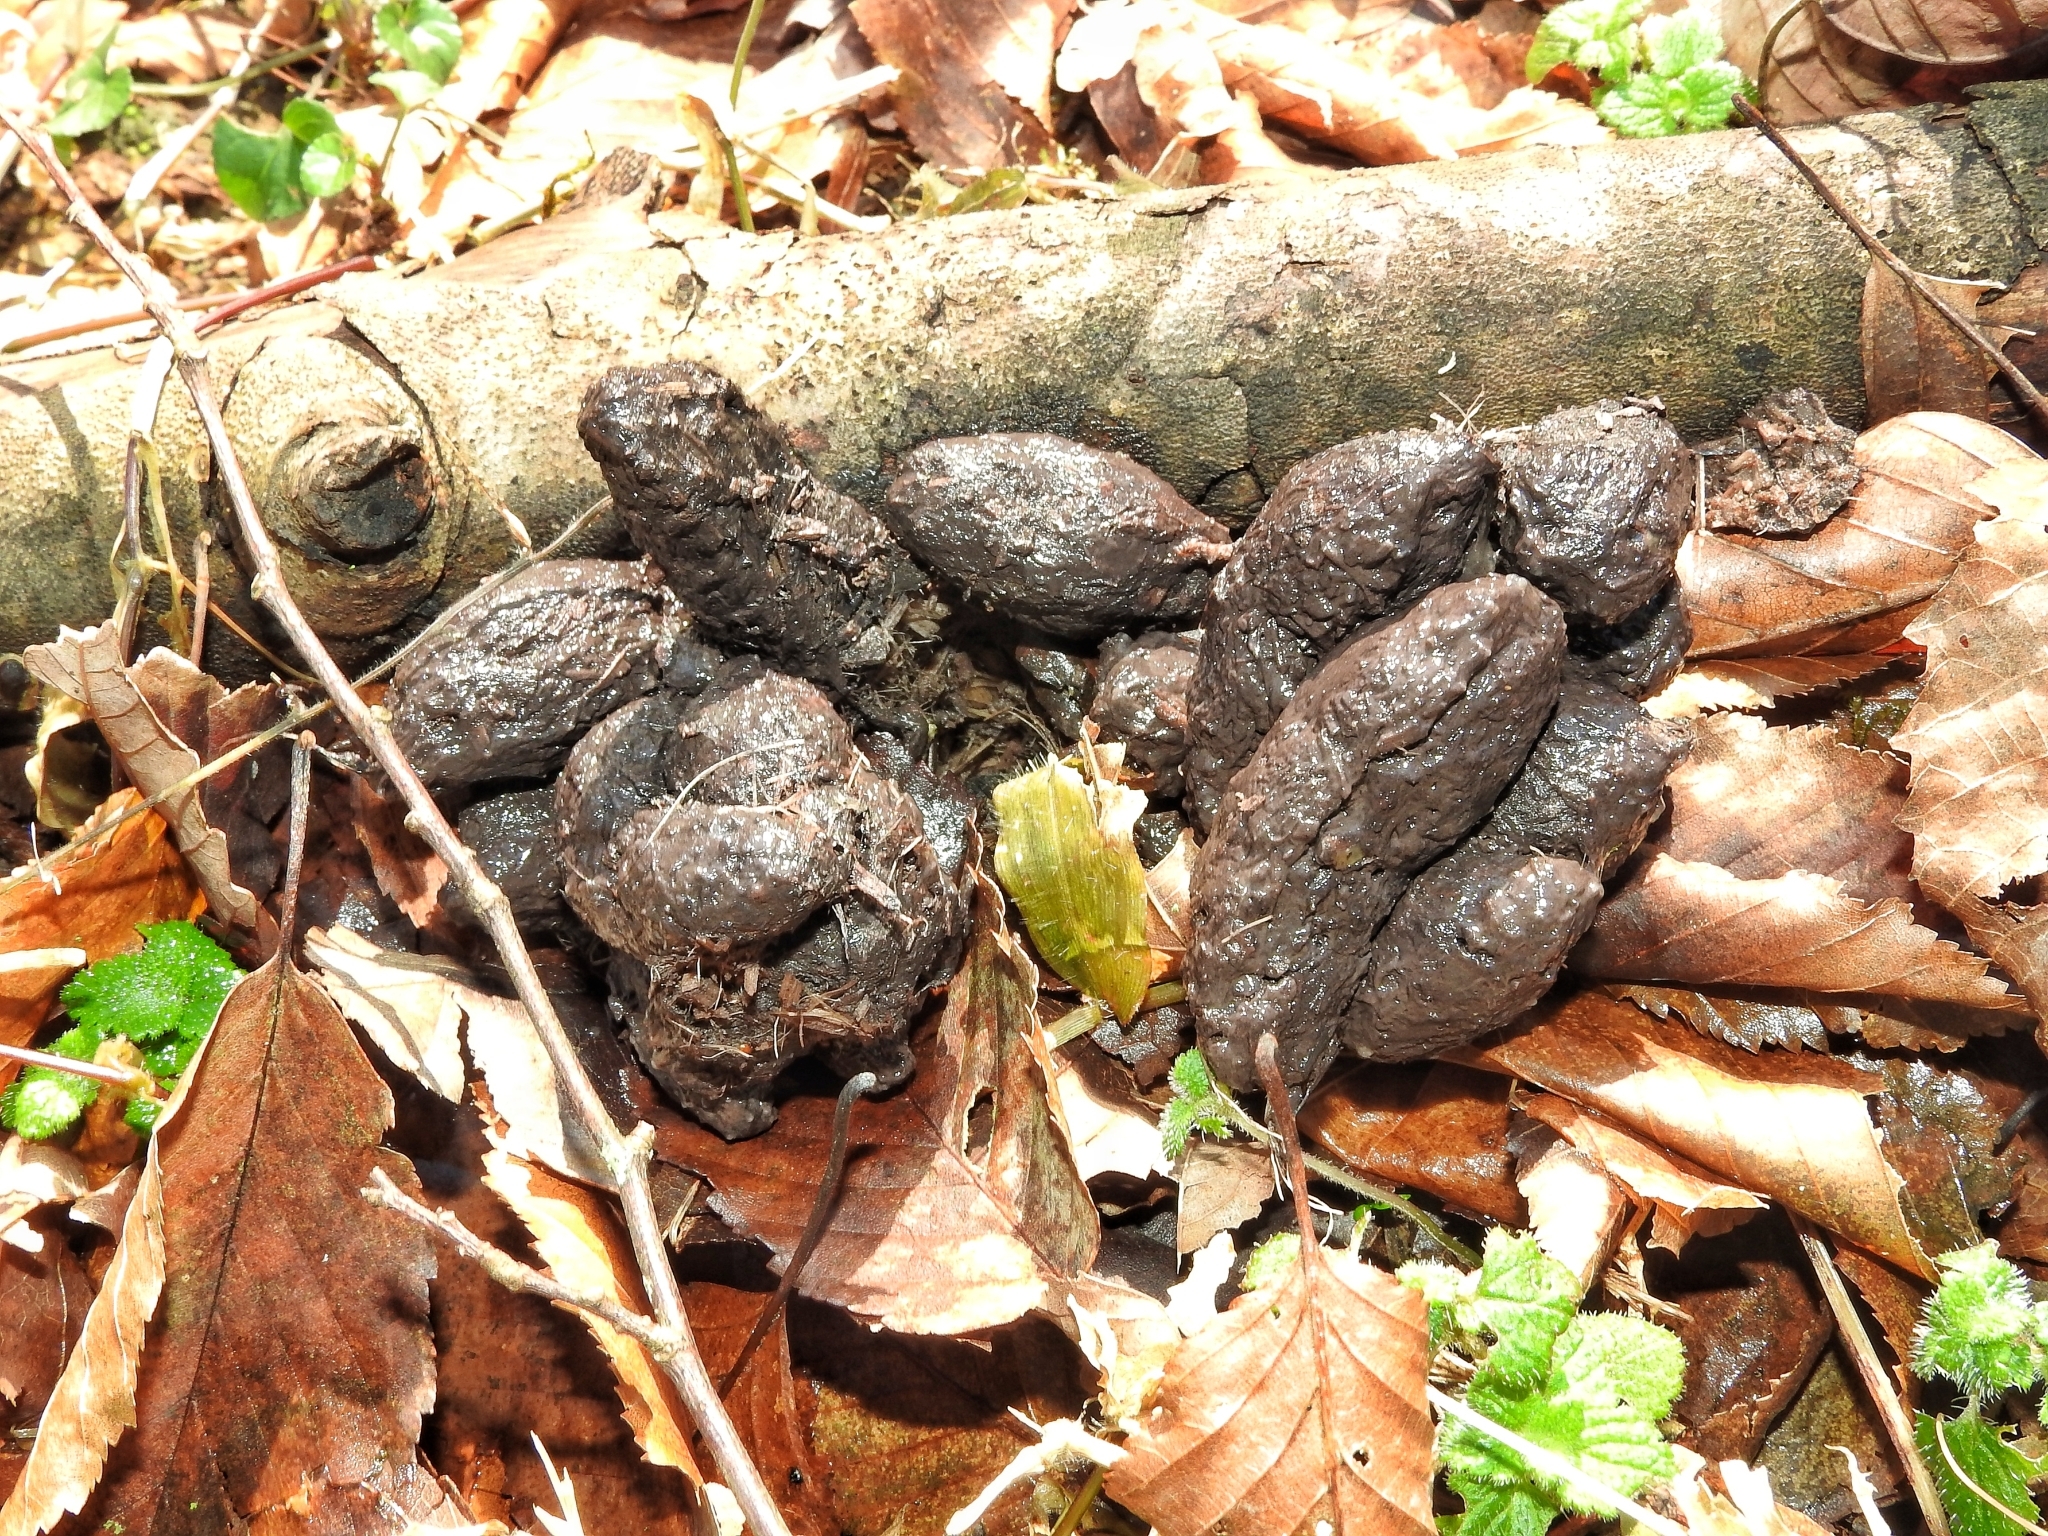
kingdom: Animalia
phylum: Chordata
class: Mammalia
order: Rodentia
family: Hystricidae
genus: Hystrix
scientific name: Hystrix indica
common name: Indian crested porcupine
